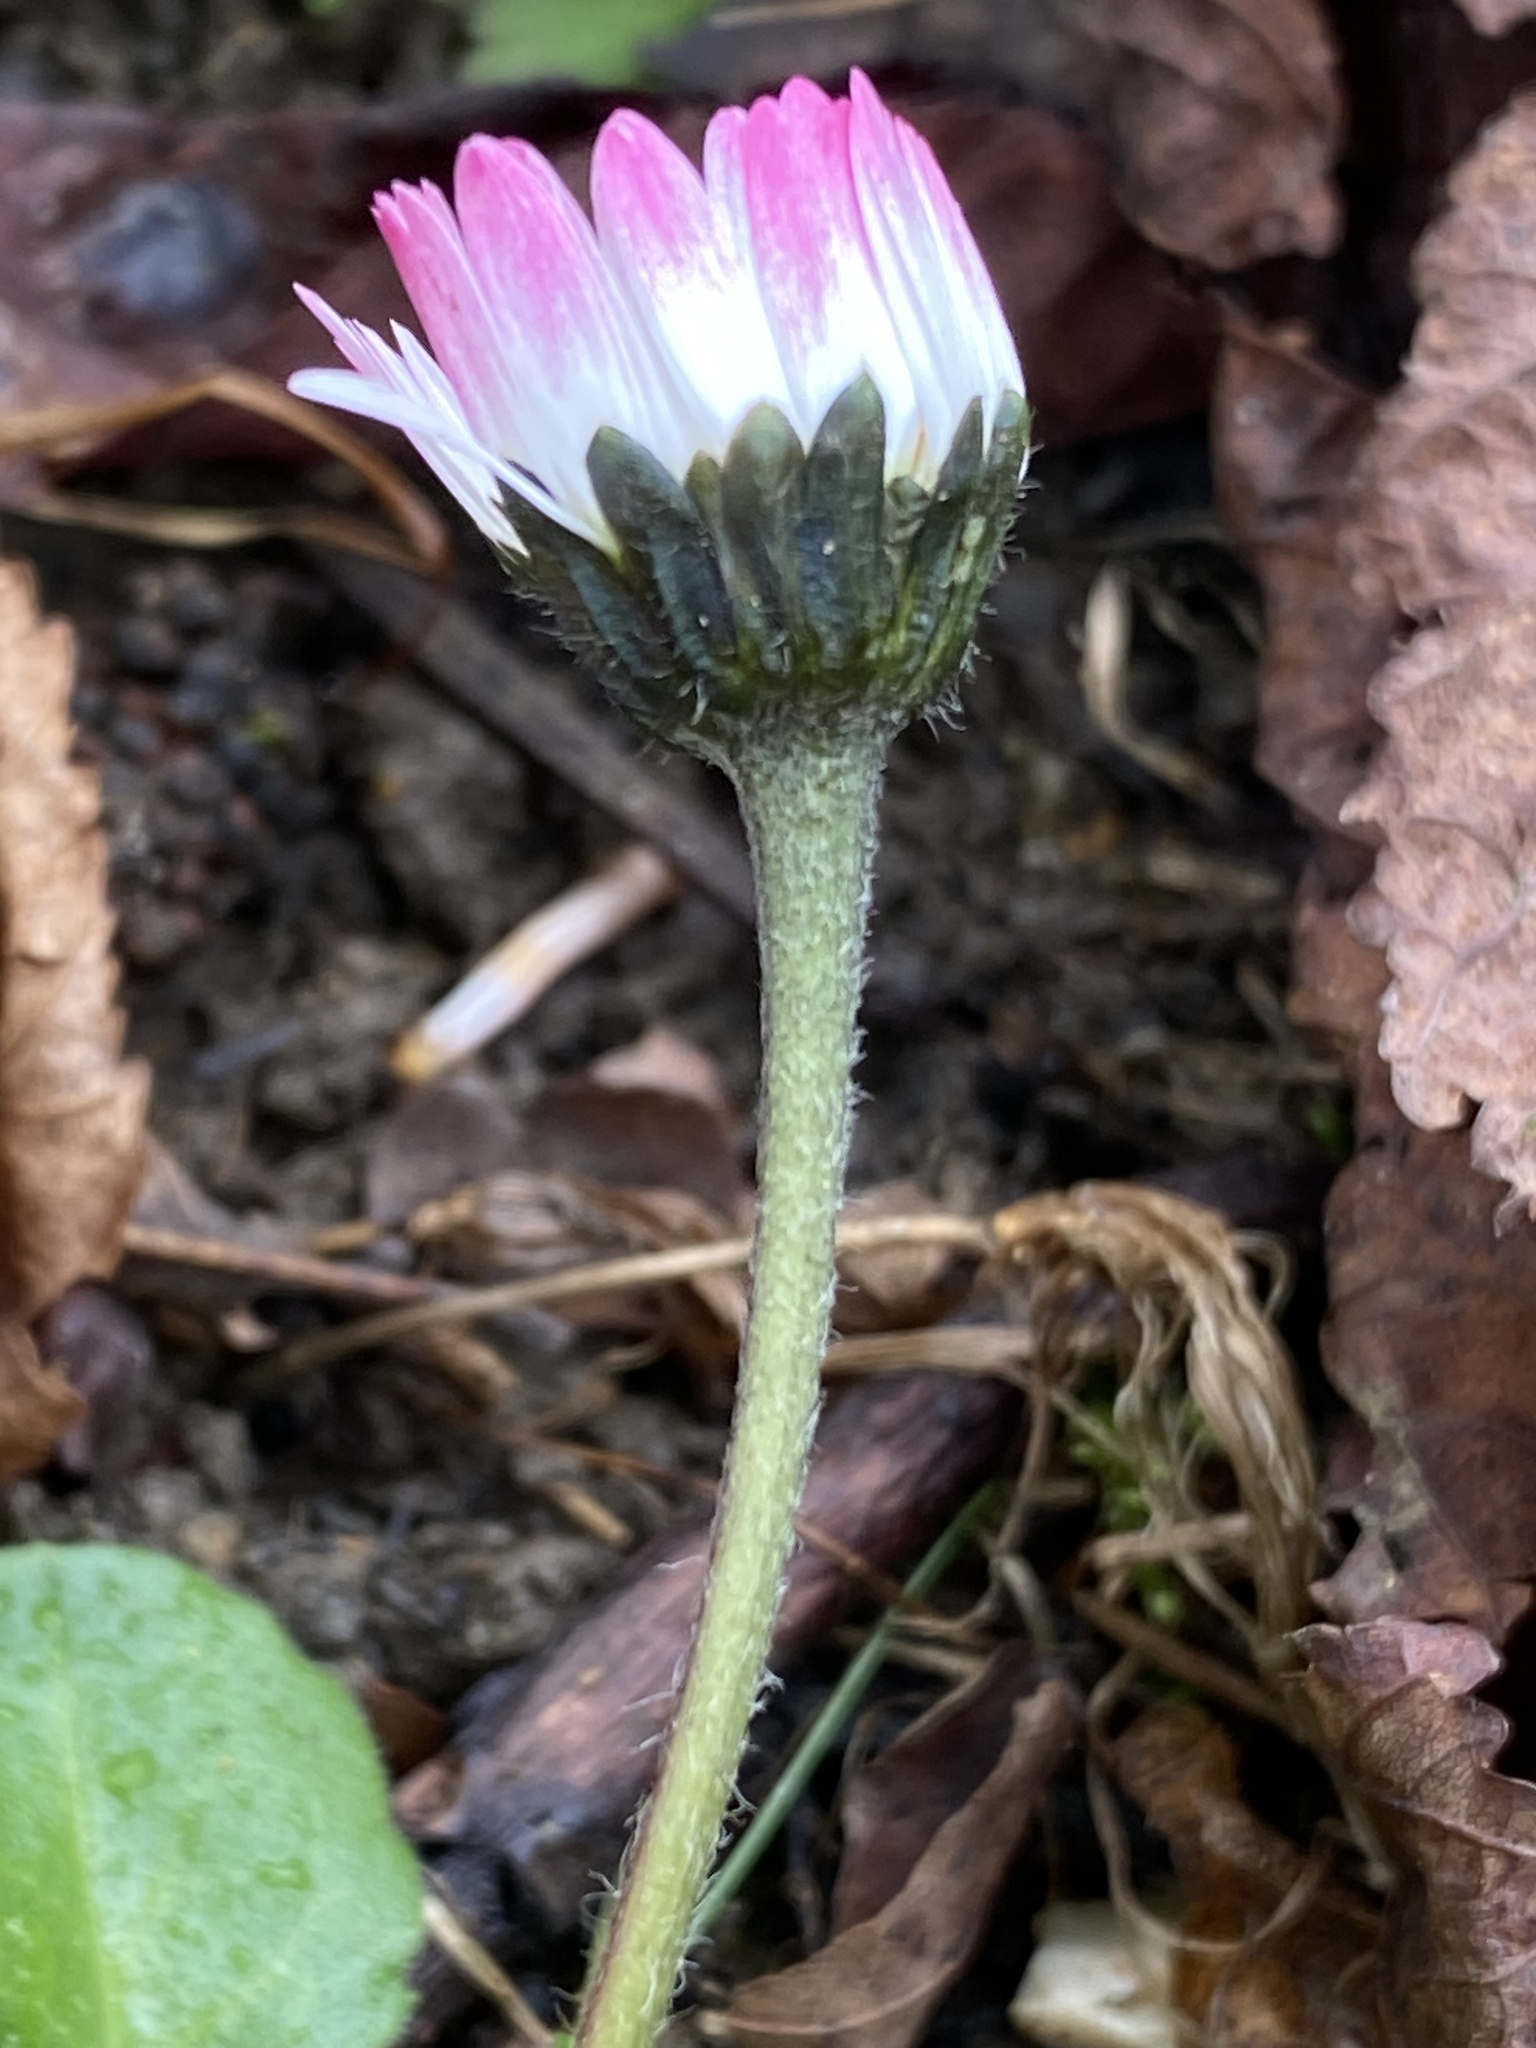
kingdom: Plantae
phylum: Tracheophyta
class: Magnoliopsida
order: Asterales
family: Asteraceae
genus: Bellis
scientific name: Bellis perennis
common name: Lawndaisy
